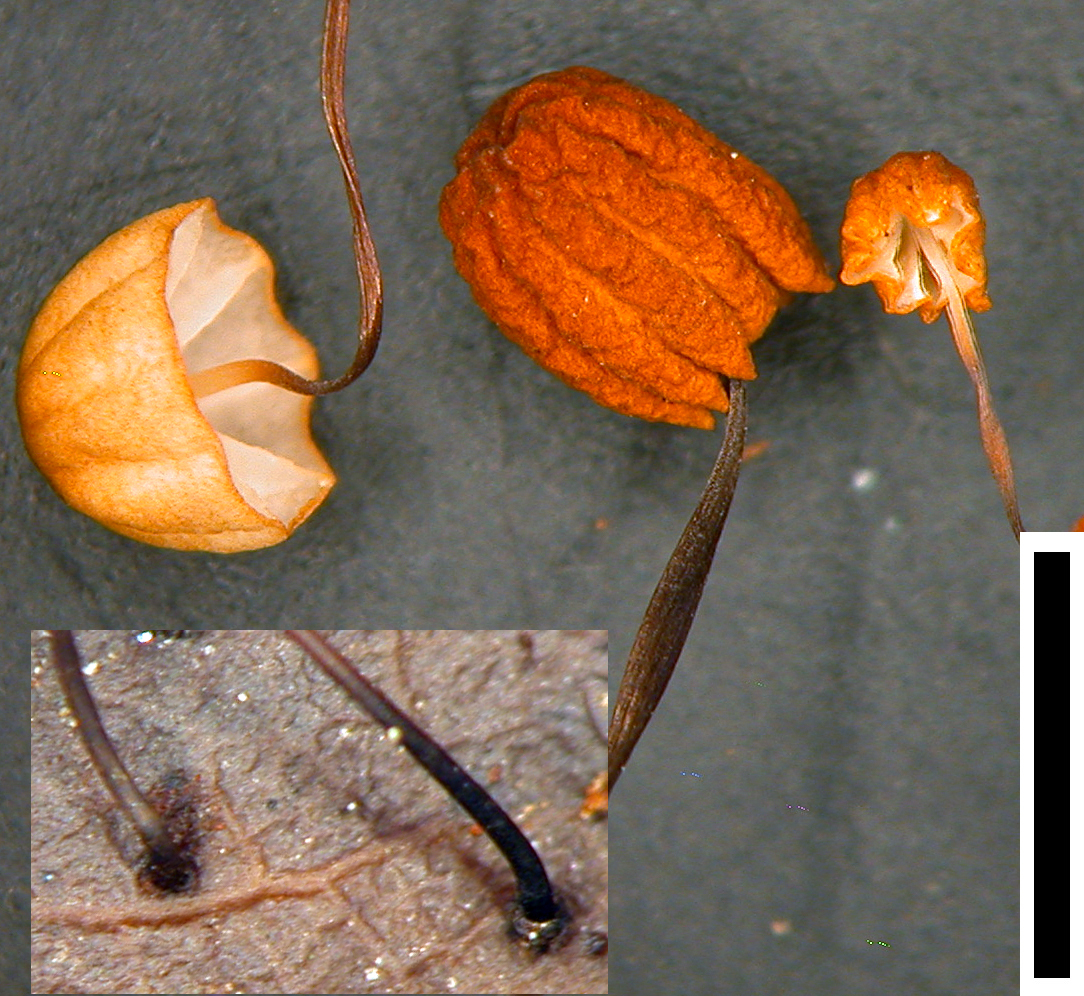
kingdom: Fungi
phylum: Basidiomycota
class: Agaricomycetes
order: Agaricales
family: Physalacriaceae
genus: Cryptomarasmius
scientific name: Cryptomarasmius
